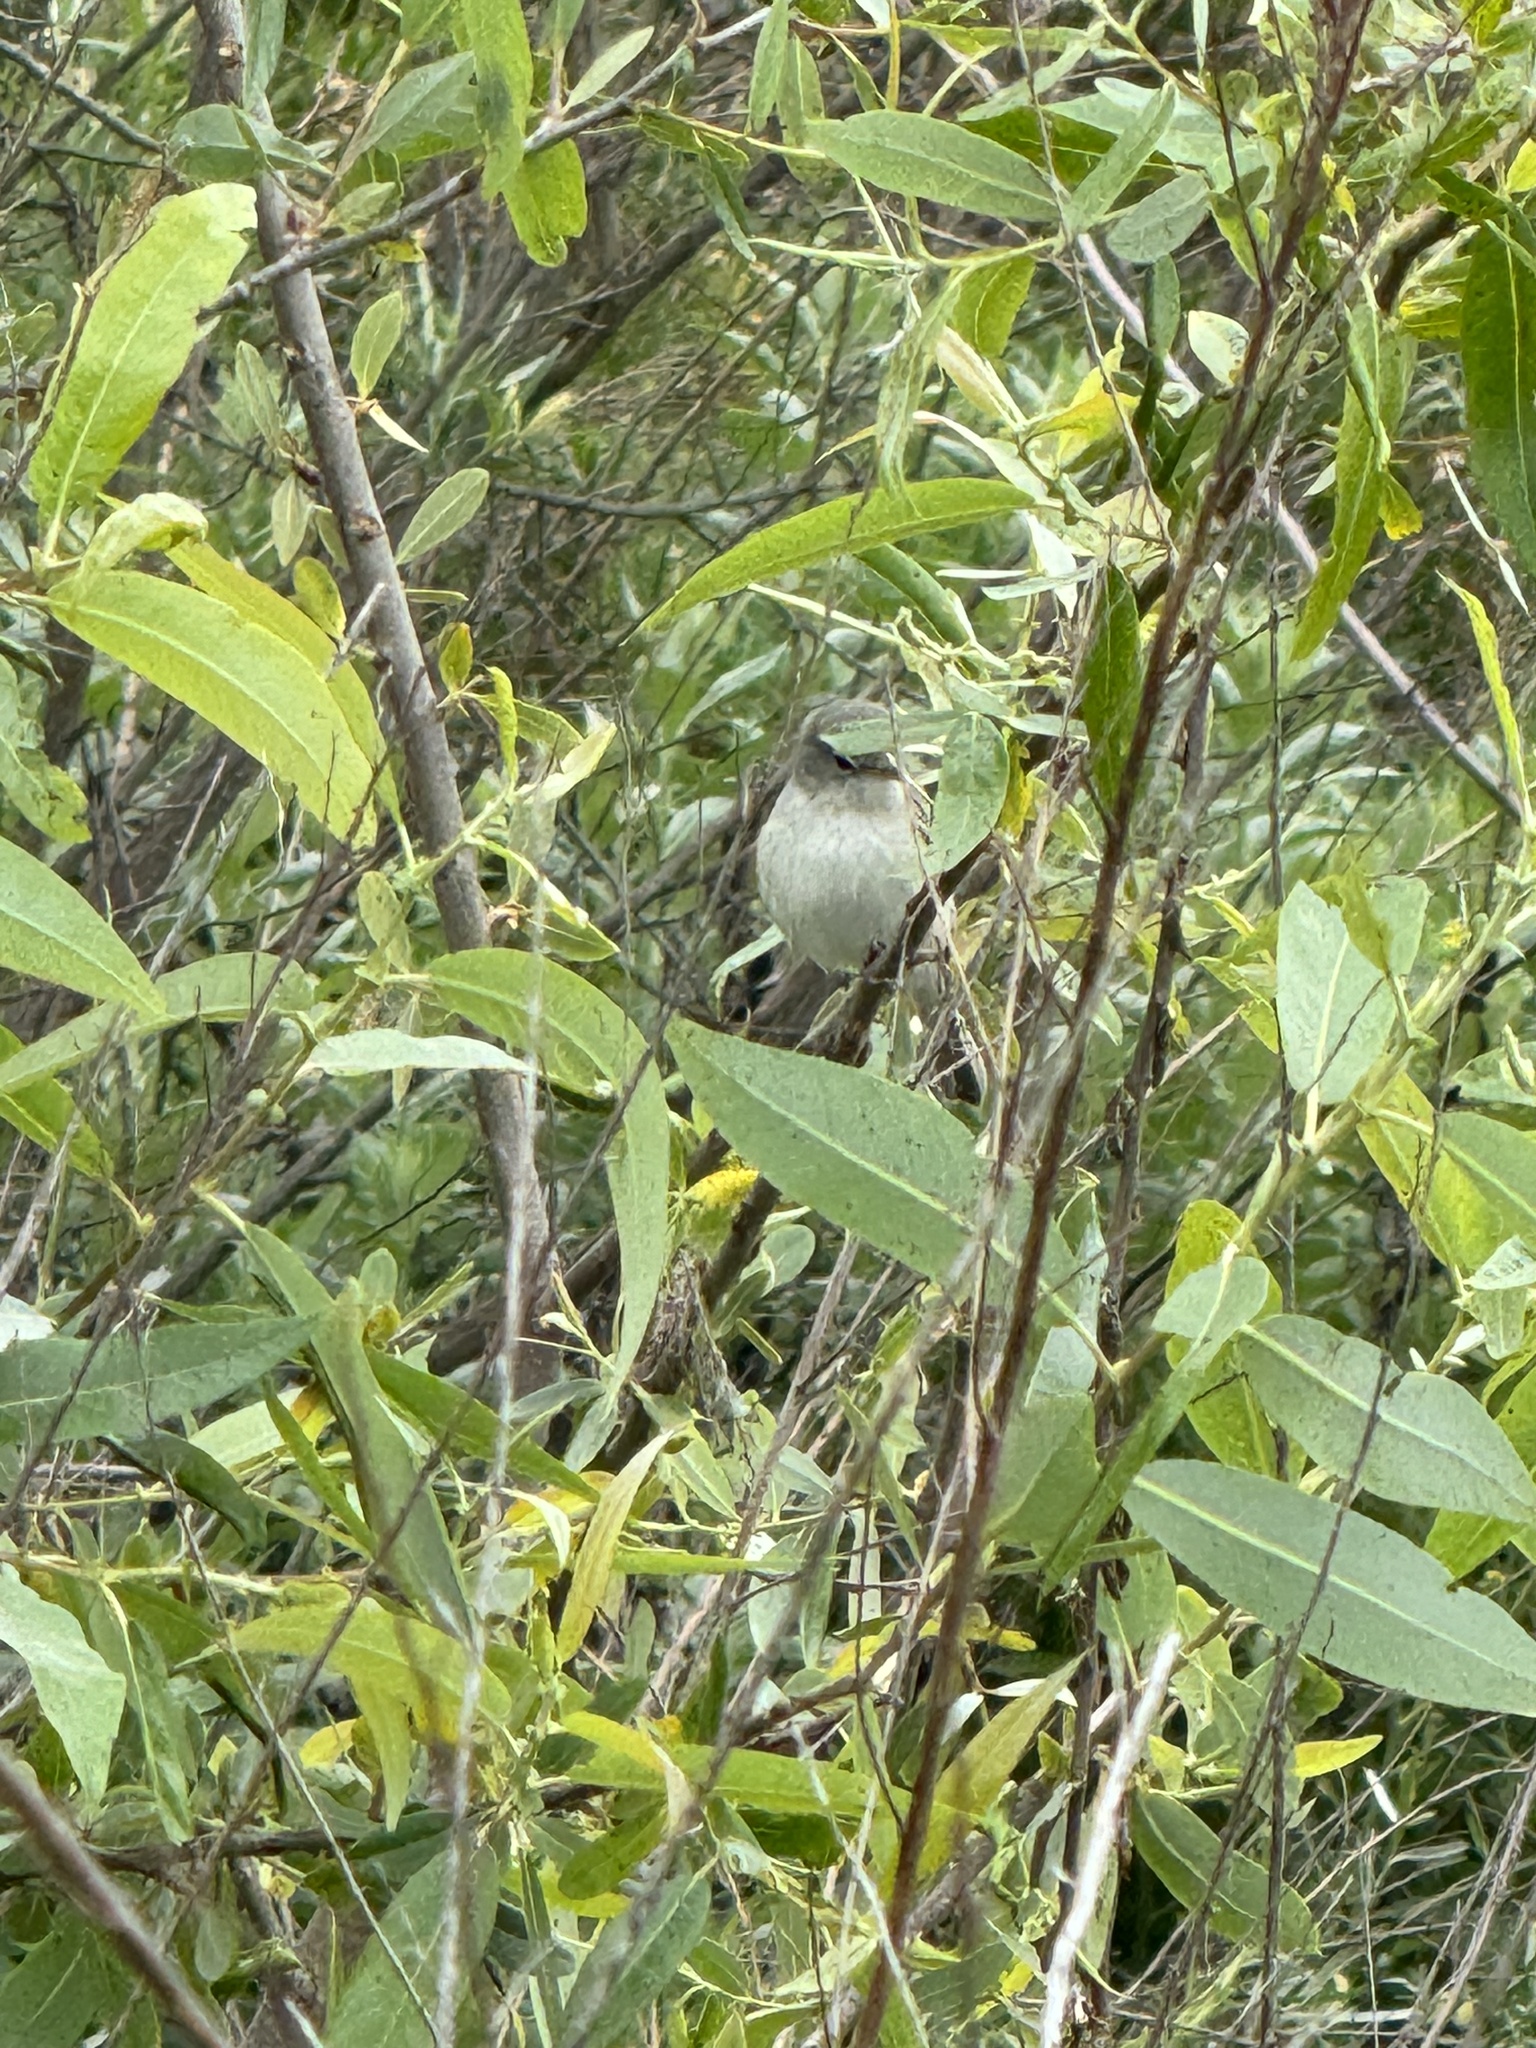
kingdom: Animalia
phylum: Chordata
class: Aves
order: Passeriformes
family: Vireonidae
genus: Vireo
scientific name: Vireo bellii
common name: Bell's vireo
